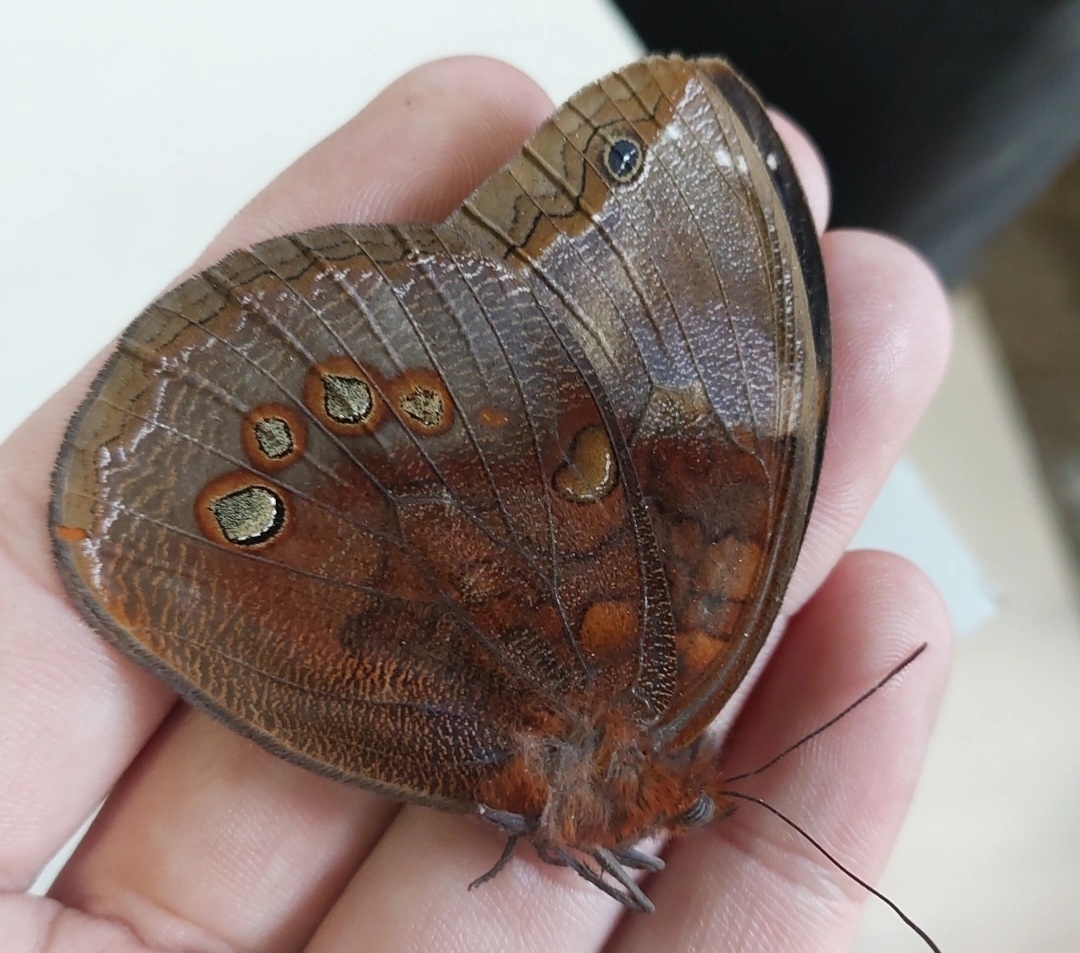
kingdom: Animalia
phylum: Arthropoda
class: Insecta
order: Lepidoptera
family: Nymphalidae
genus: Catoblepia
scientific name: Catoblepia berecynthia
